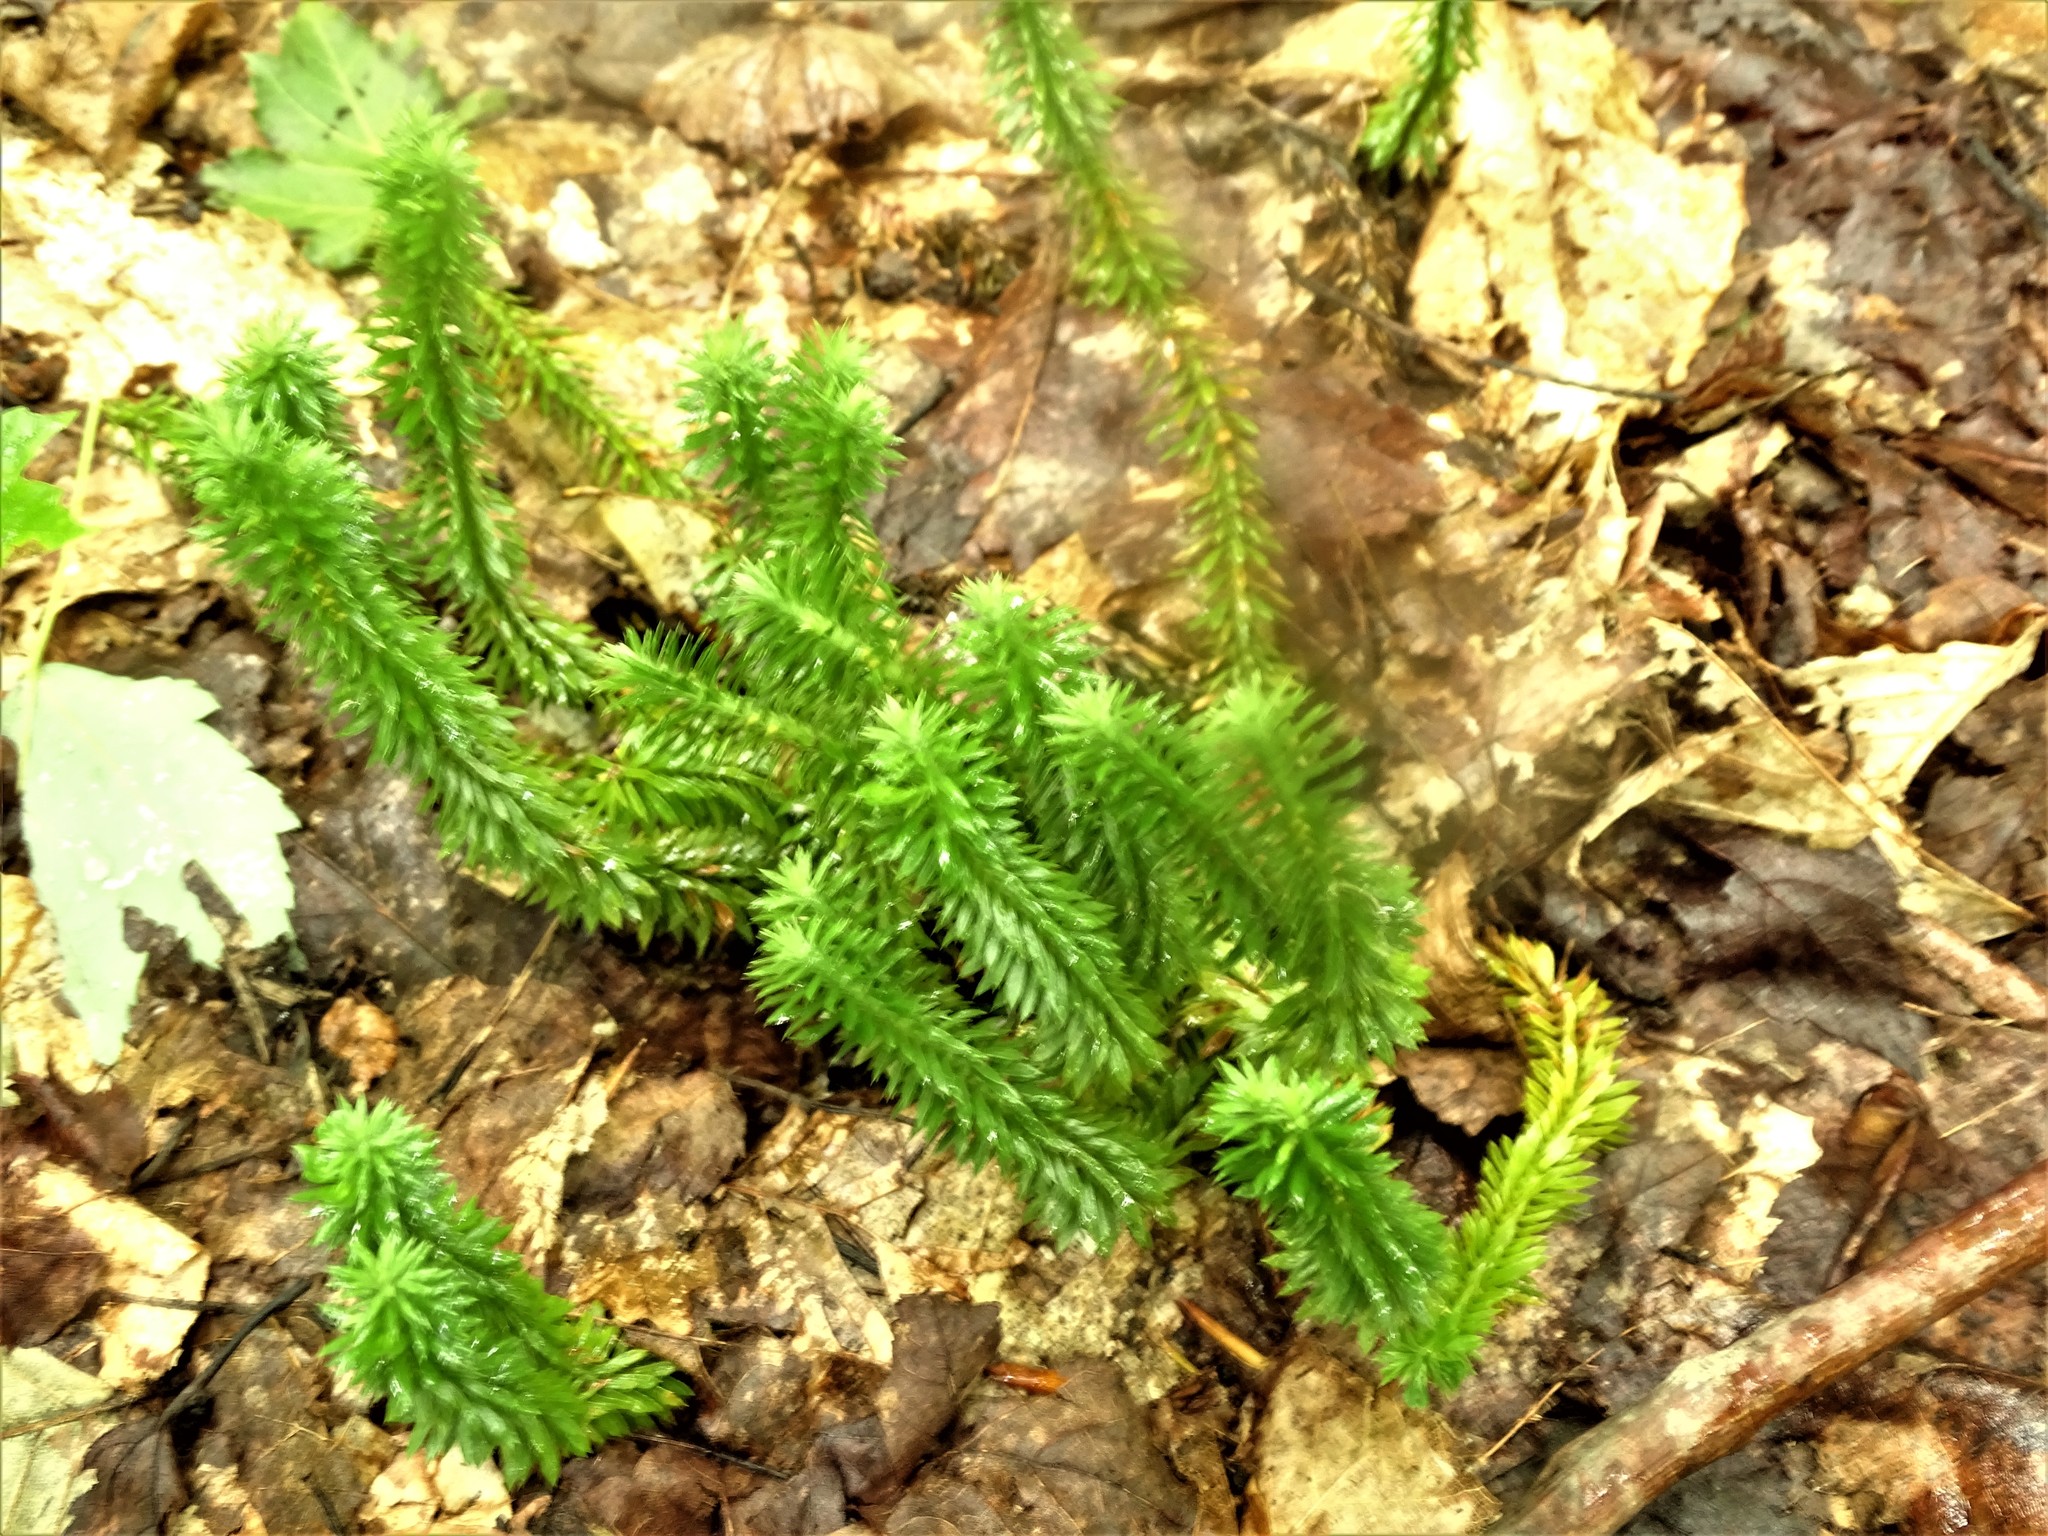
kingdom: Plantae
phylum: Tracheophyta
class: Lycopodiopsida
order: Lycopodiales
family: Lycopodiaceae
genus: Huperzia
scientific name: Huperzia lucidula
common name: Shining clubmoss
